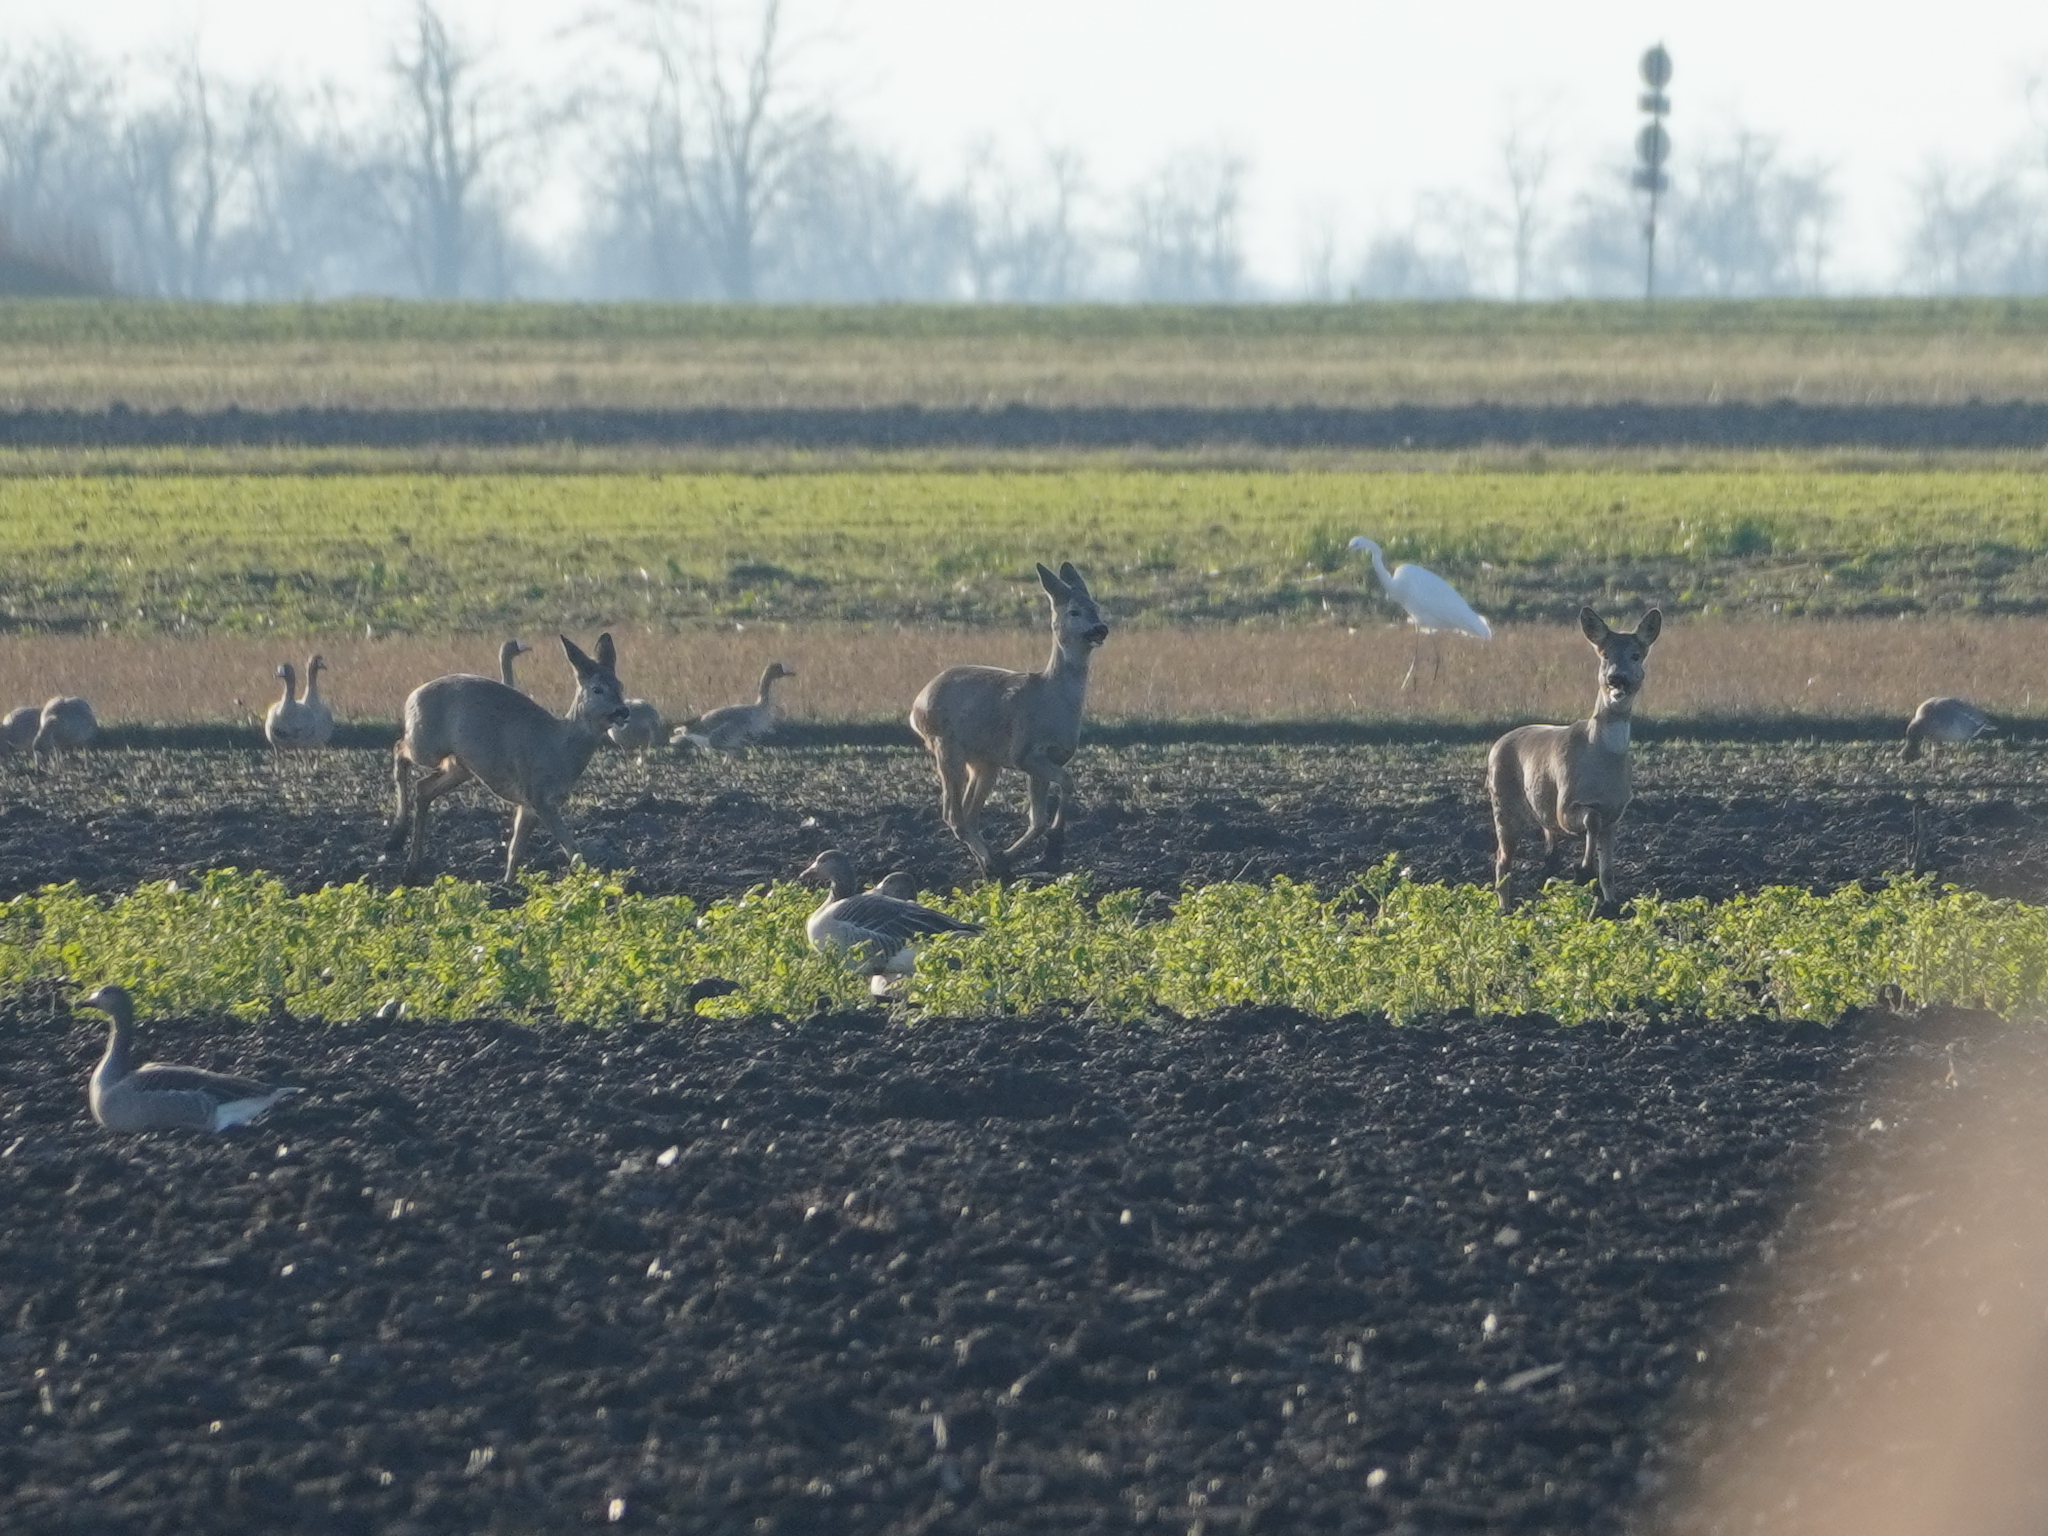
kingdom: Animalia
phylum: Chordata
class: Mammalia
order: Artiodactyla
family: Cervidae
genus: Capreolus
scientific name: Capreolus capreolus
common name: Western roe deer
